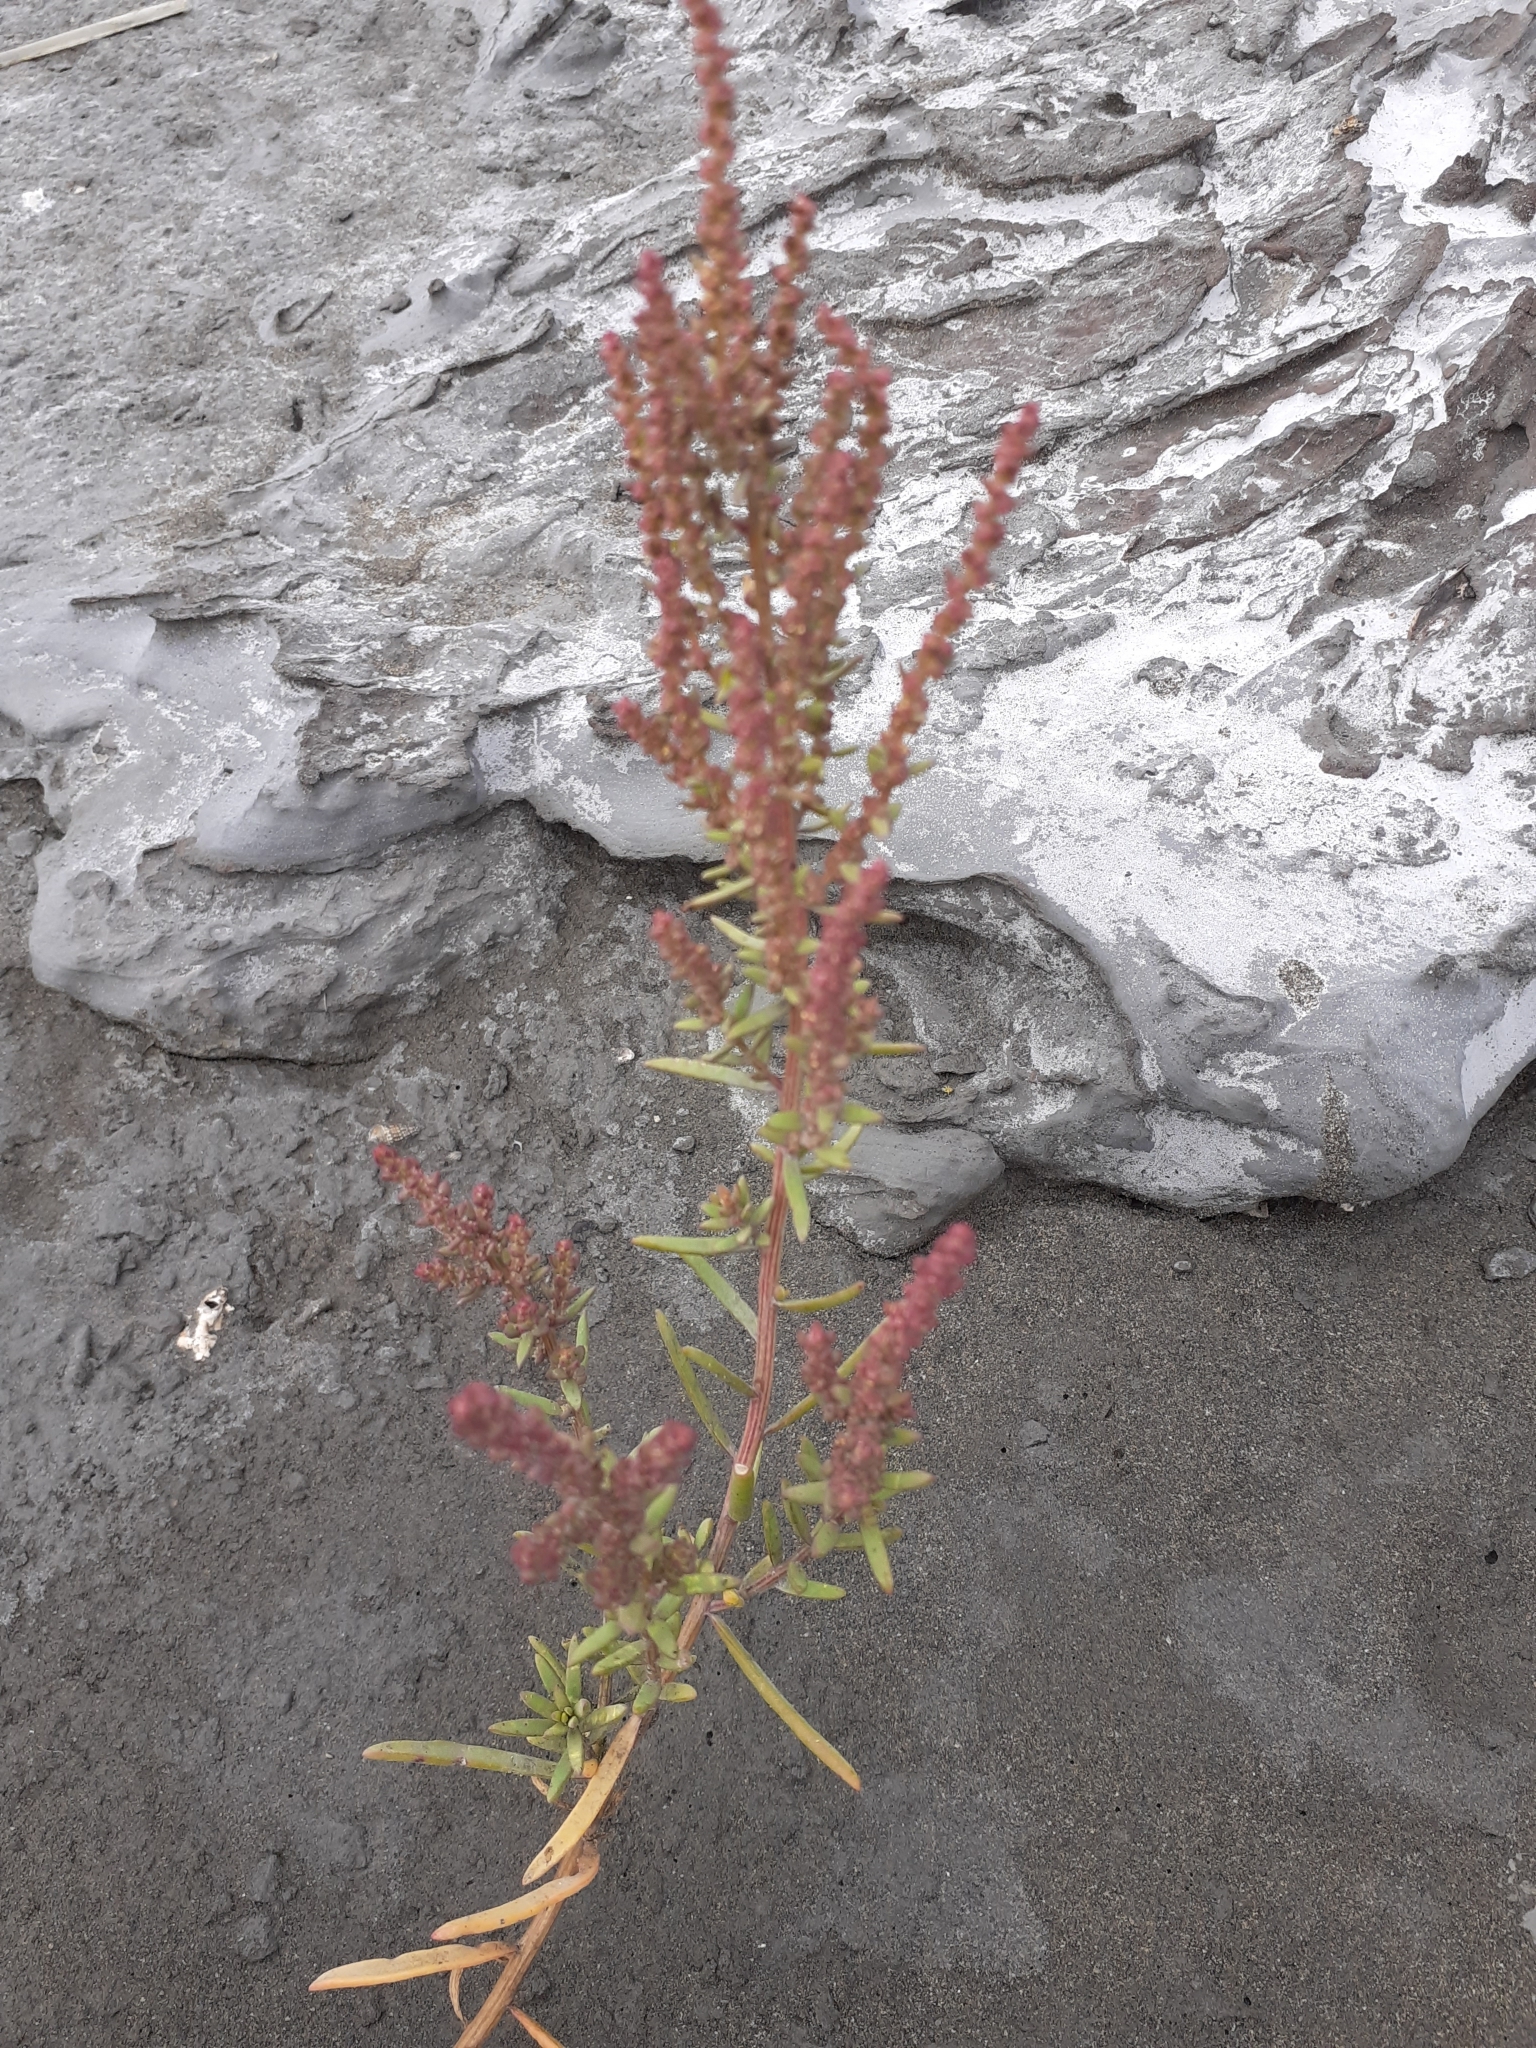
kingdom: Plantae
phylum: Tracheophyta
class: Magnoliopsida
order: Caryophyllales
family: Amaranthaceae
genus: Suaeda
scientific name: Suaeda maritima
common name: Annual sea-blite
